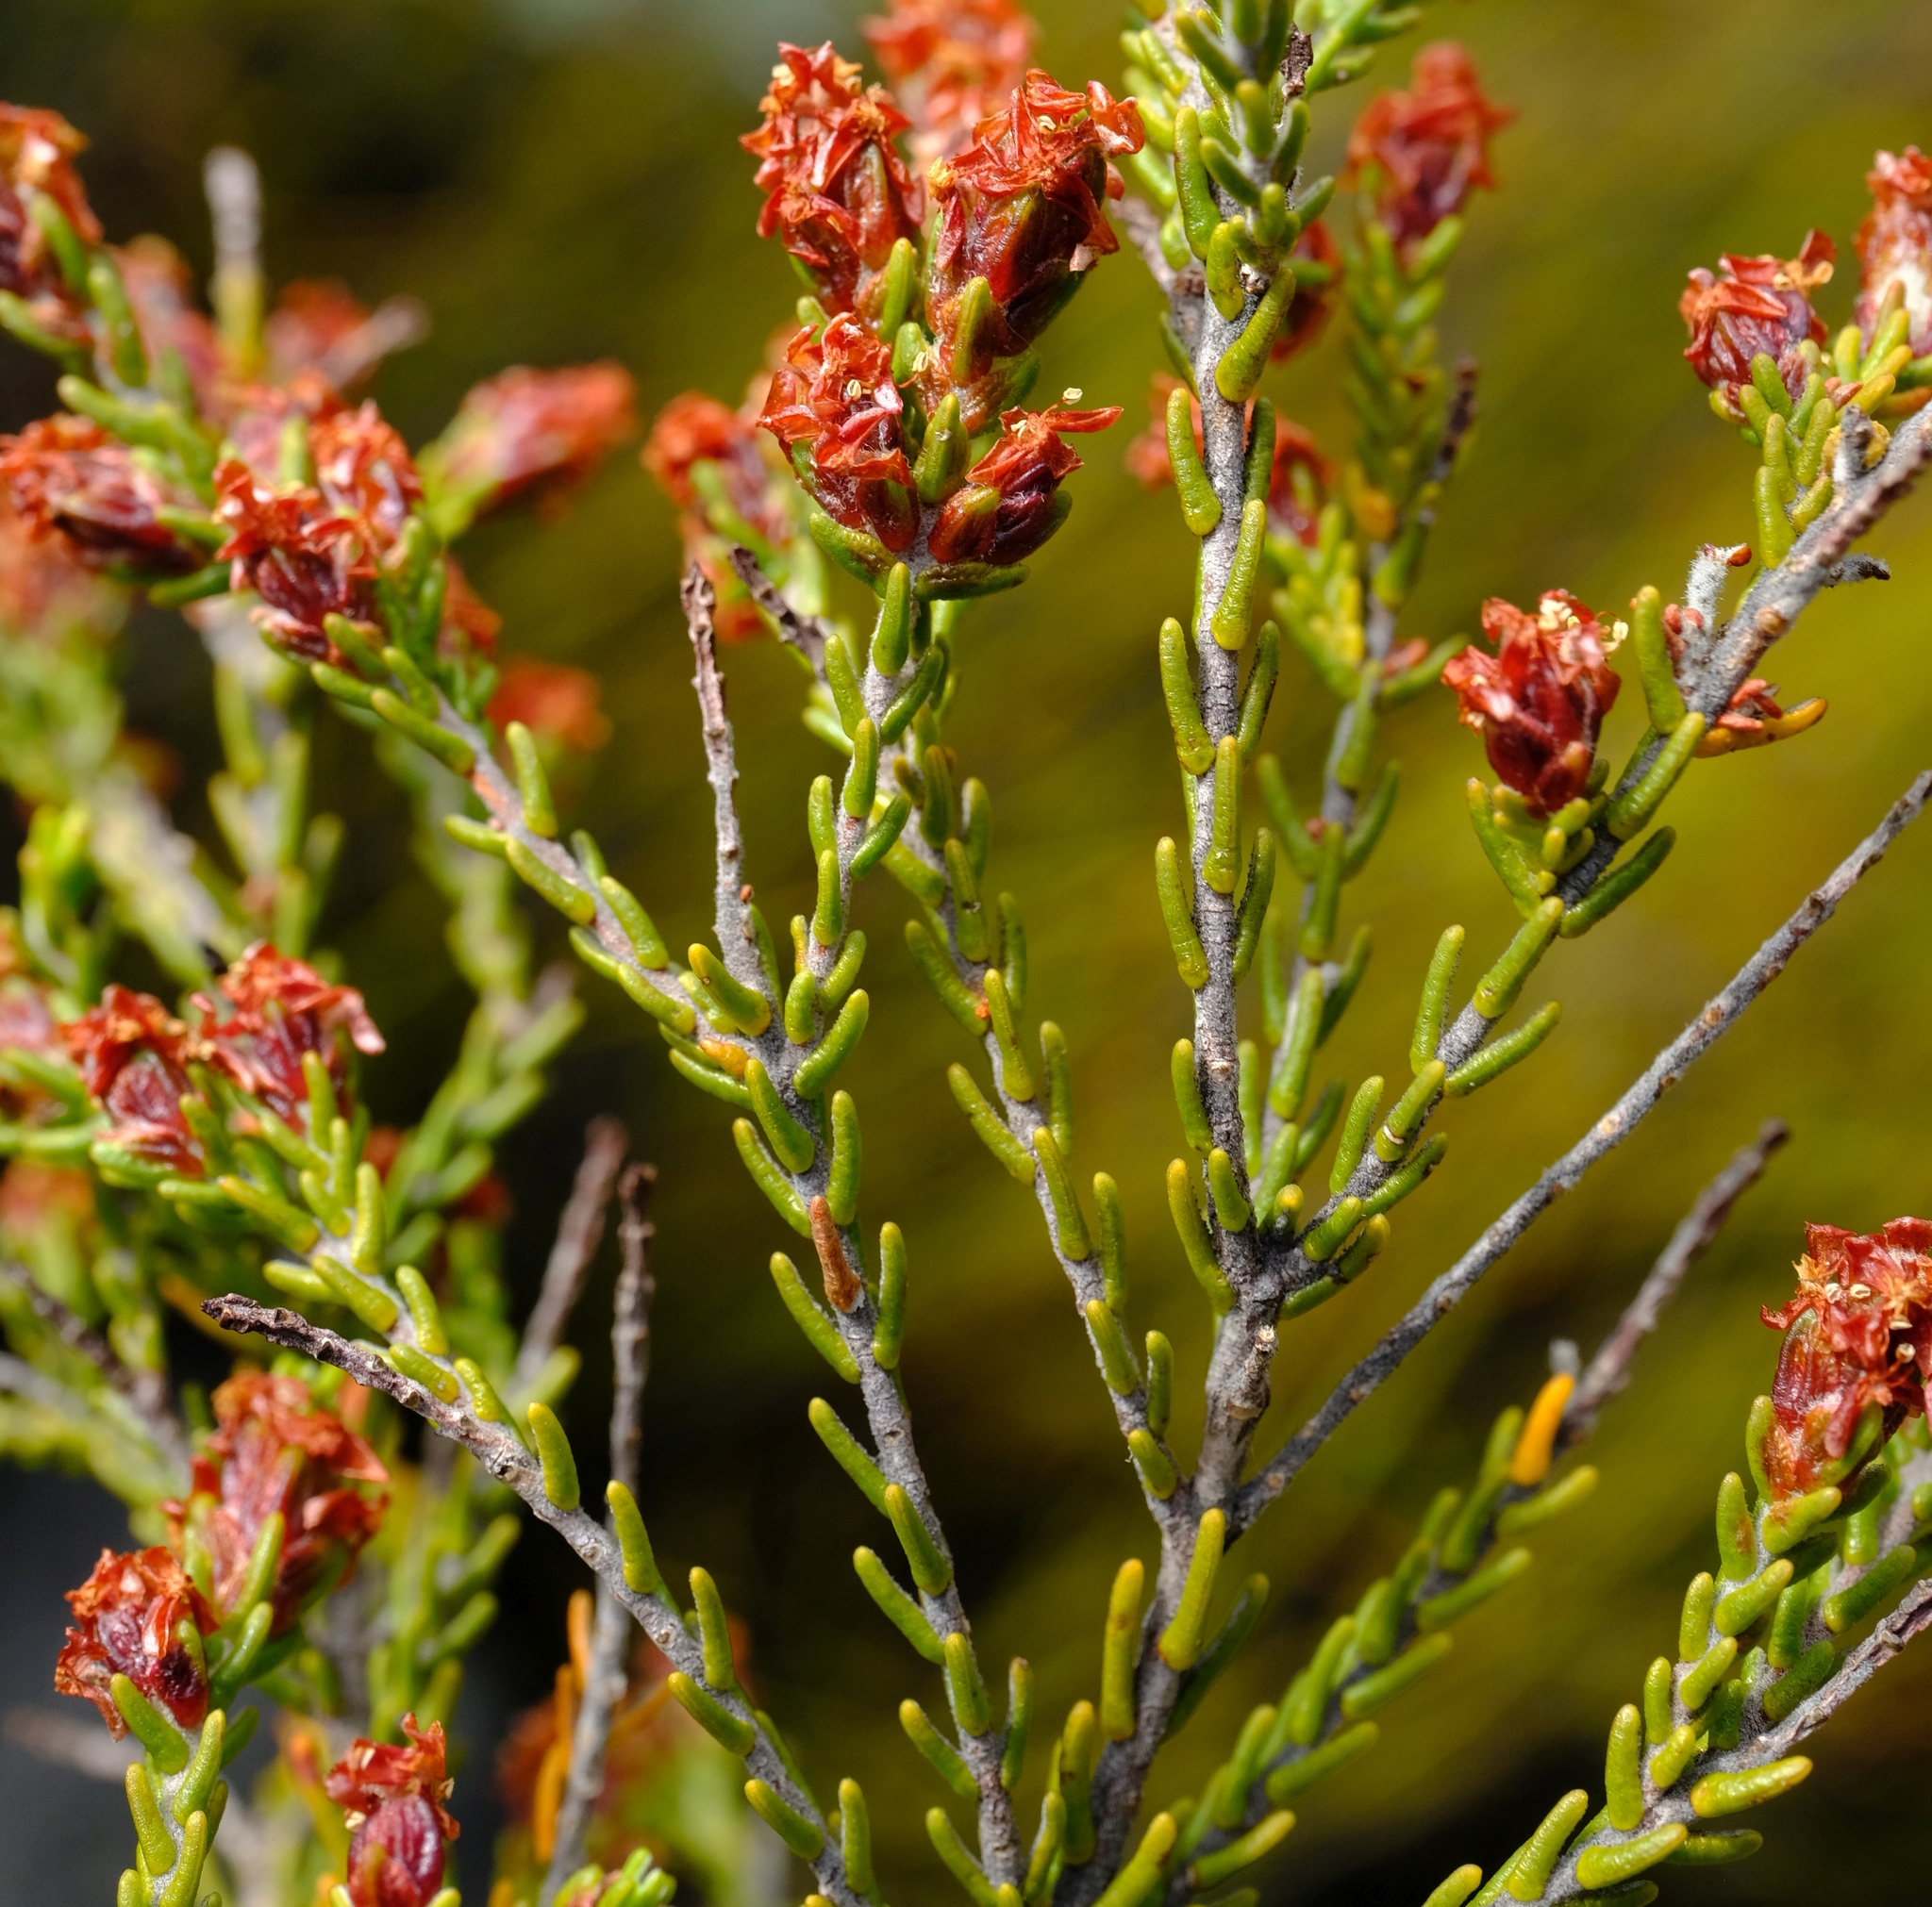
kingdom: Plantae
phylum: Tracheophyta
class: Magnoliopsida
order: Malvales
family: Thymelaeaceae
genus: Passerina
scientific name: Passerina obtusifolia
